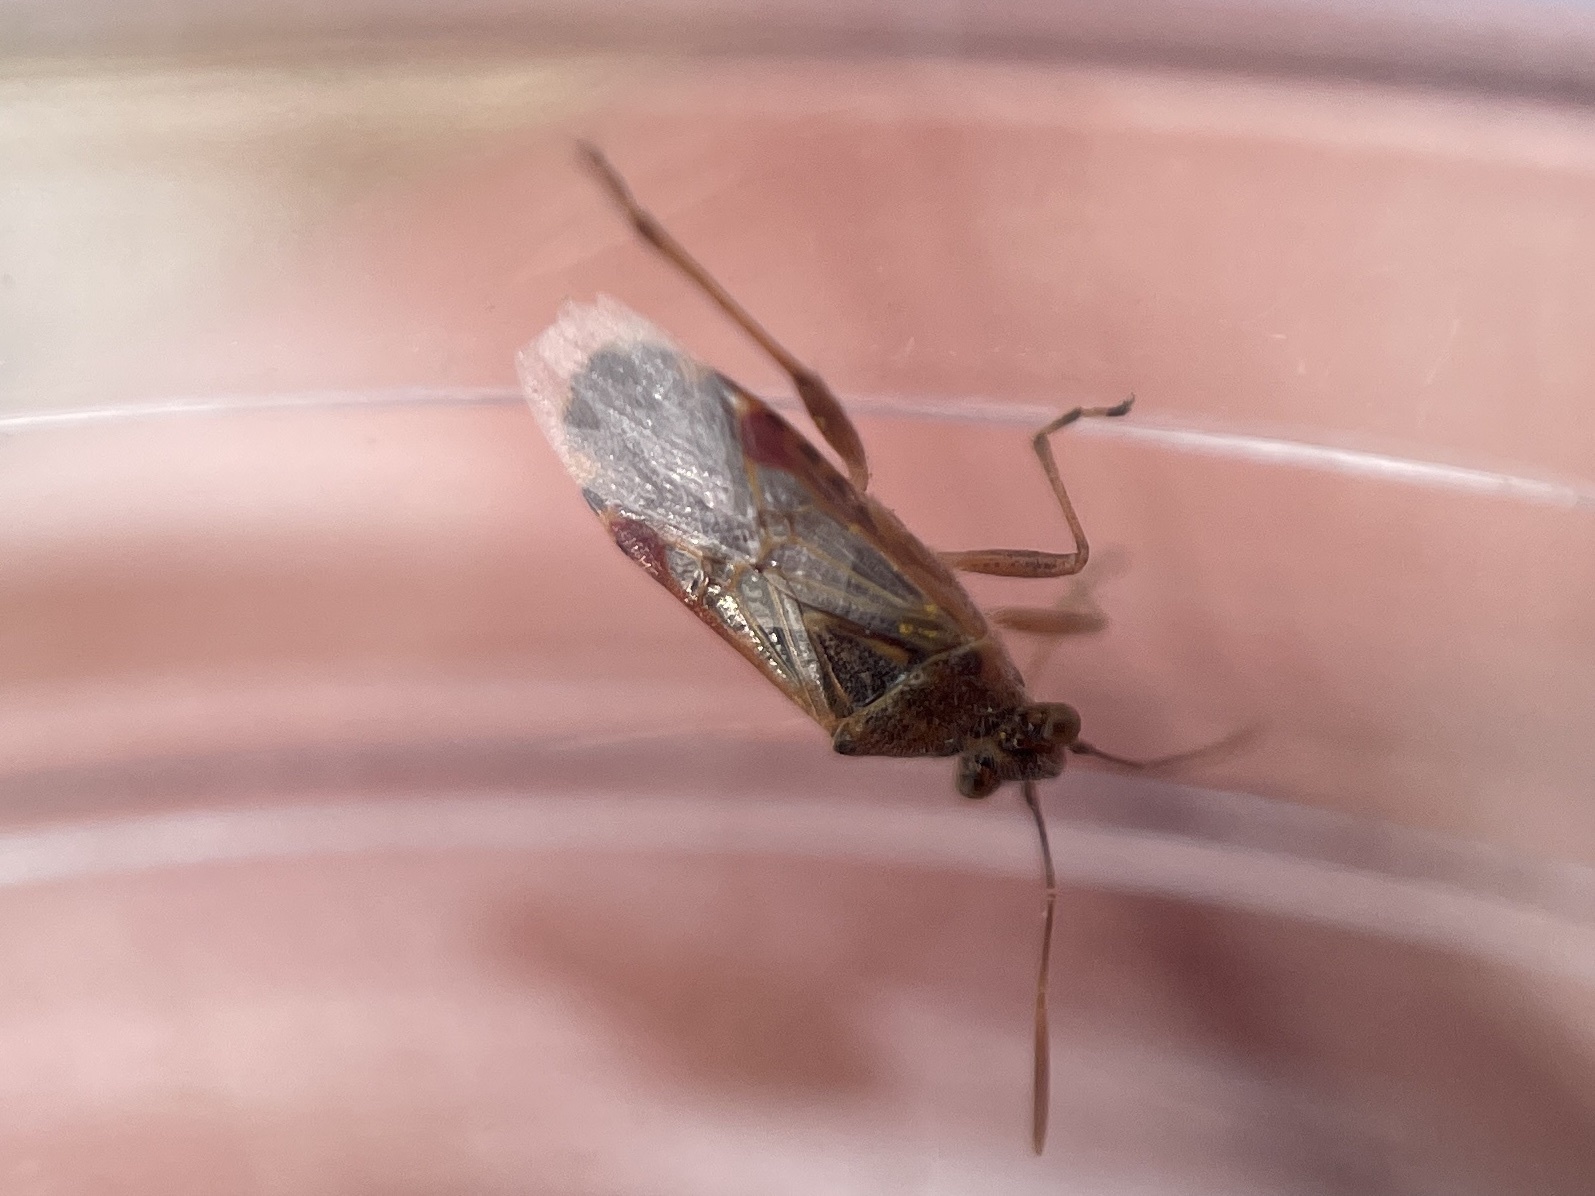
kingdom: Animalia
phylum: Arthropoda
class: Insecta
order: Hemiptera
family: Rhopalidae
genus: Liorhyssus
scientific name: Liorhyssus hyalinus
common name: Scentless plant bug
